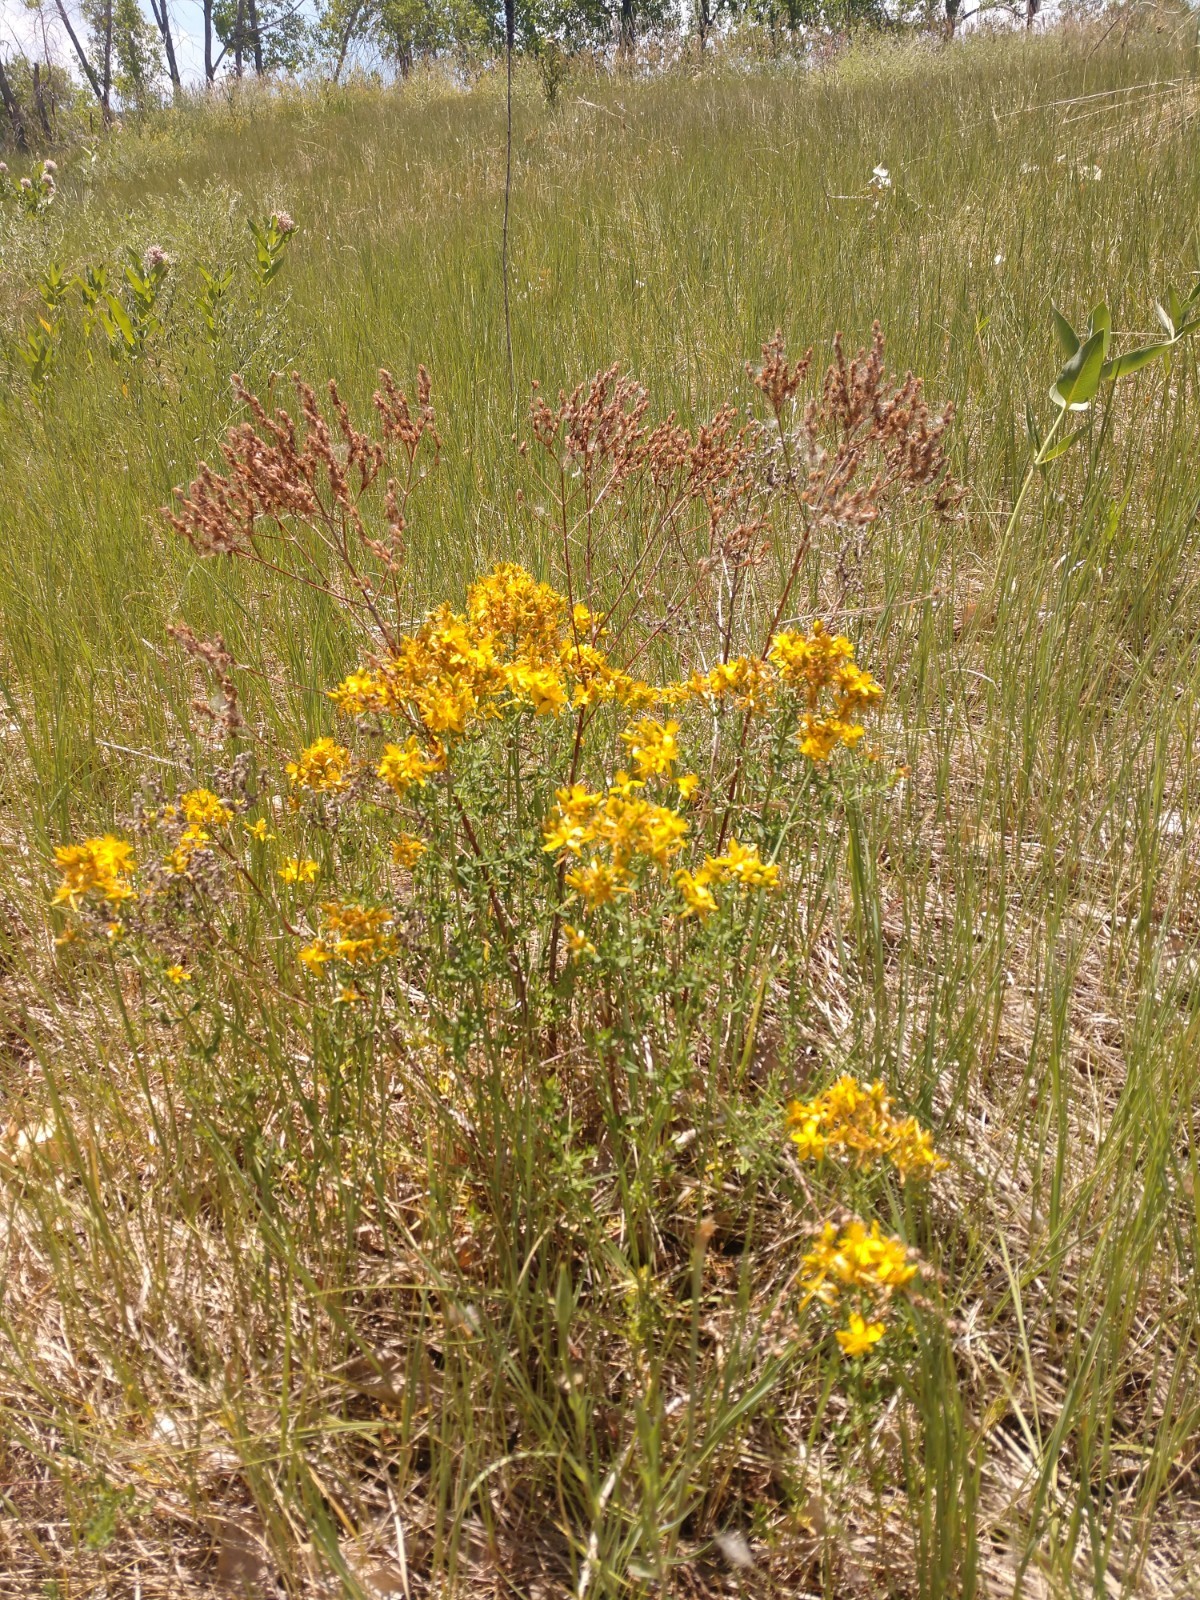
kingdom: Plantae
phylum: Tracheophyta
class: Magnoliopsida
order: Malpighiales
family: Hypericaceae
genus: Hypericum
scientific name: Hypericum perforatum
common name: Common st. johnswort
